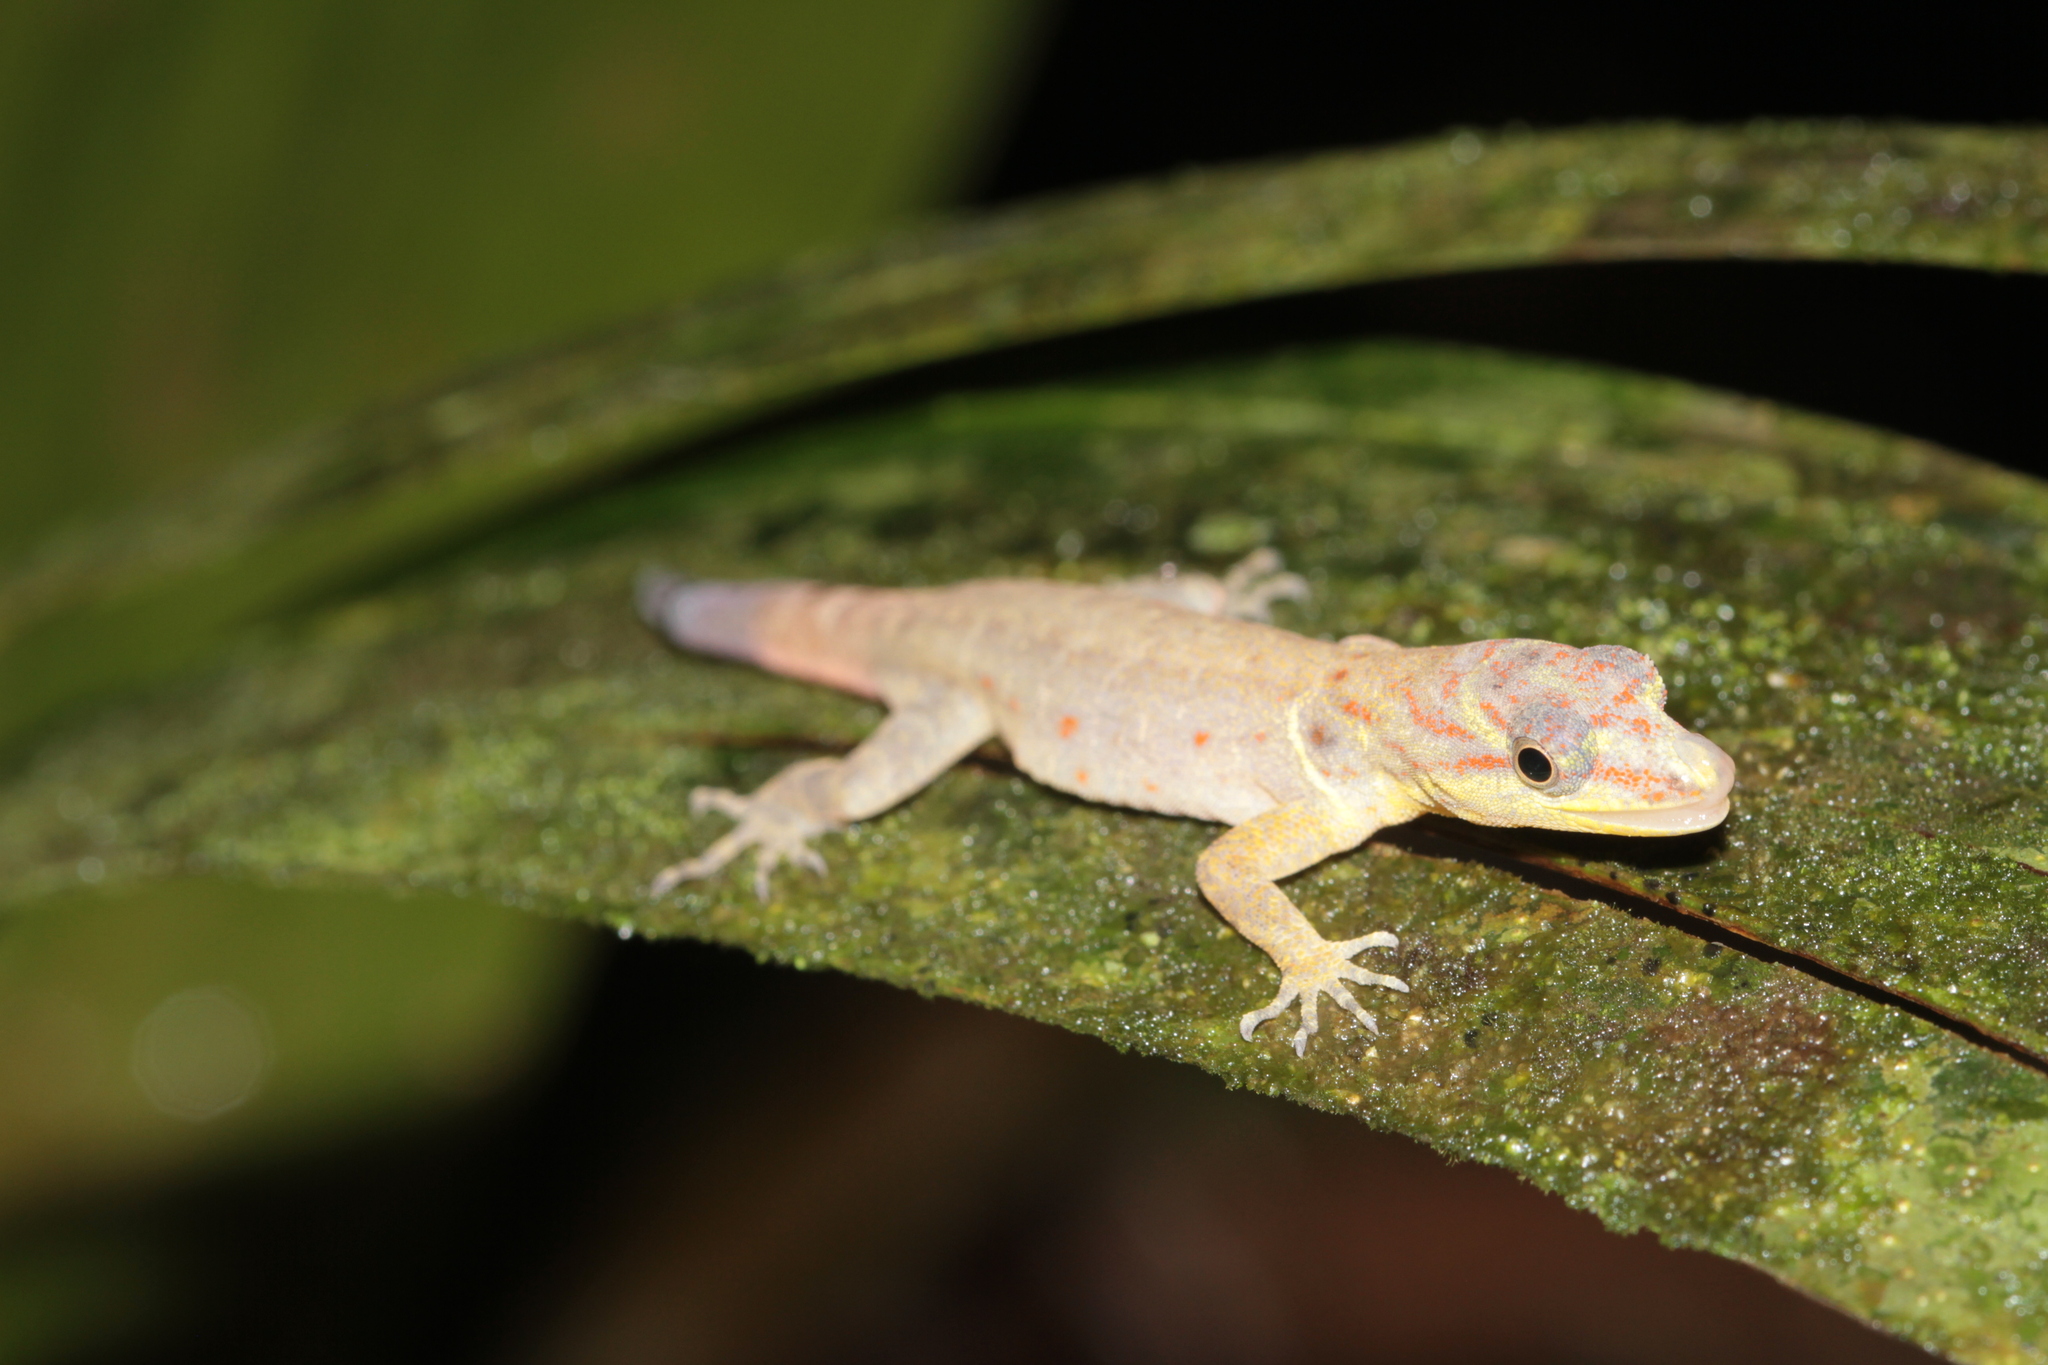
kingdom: Animalia
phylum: Chordata
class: Squamata
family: Sphaerodactylidae
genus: Gonatodes
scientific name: Gonatodes humeralis
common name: South american clawed gecko
